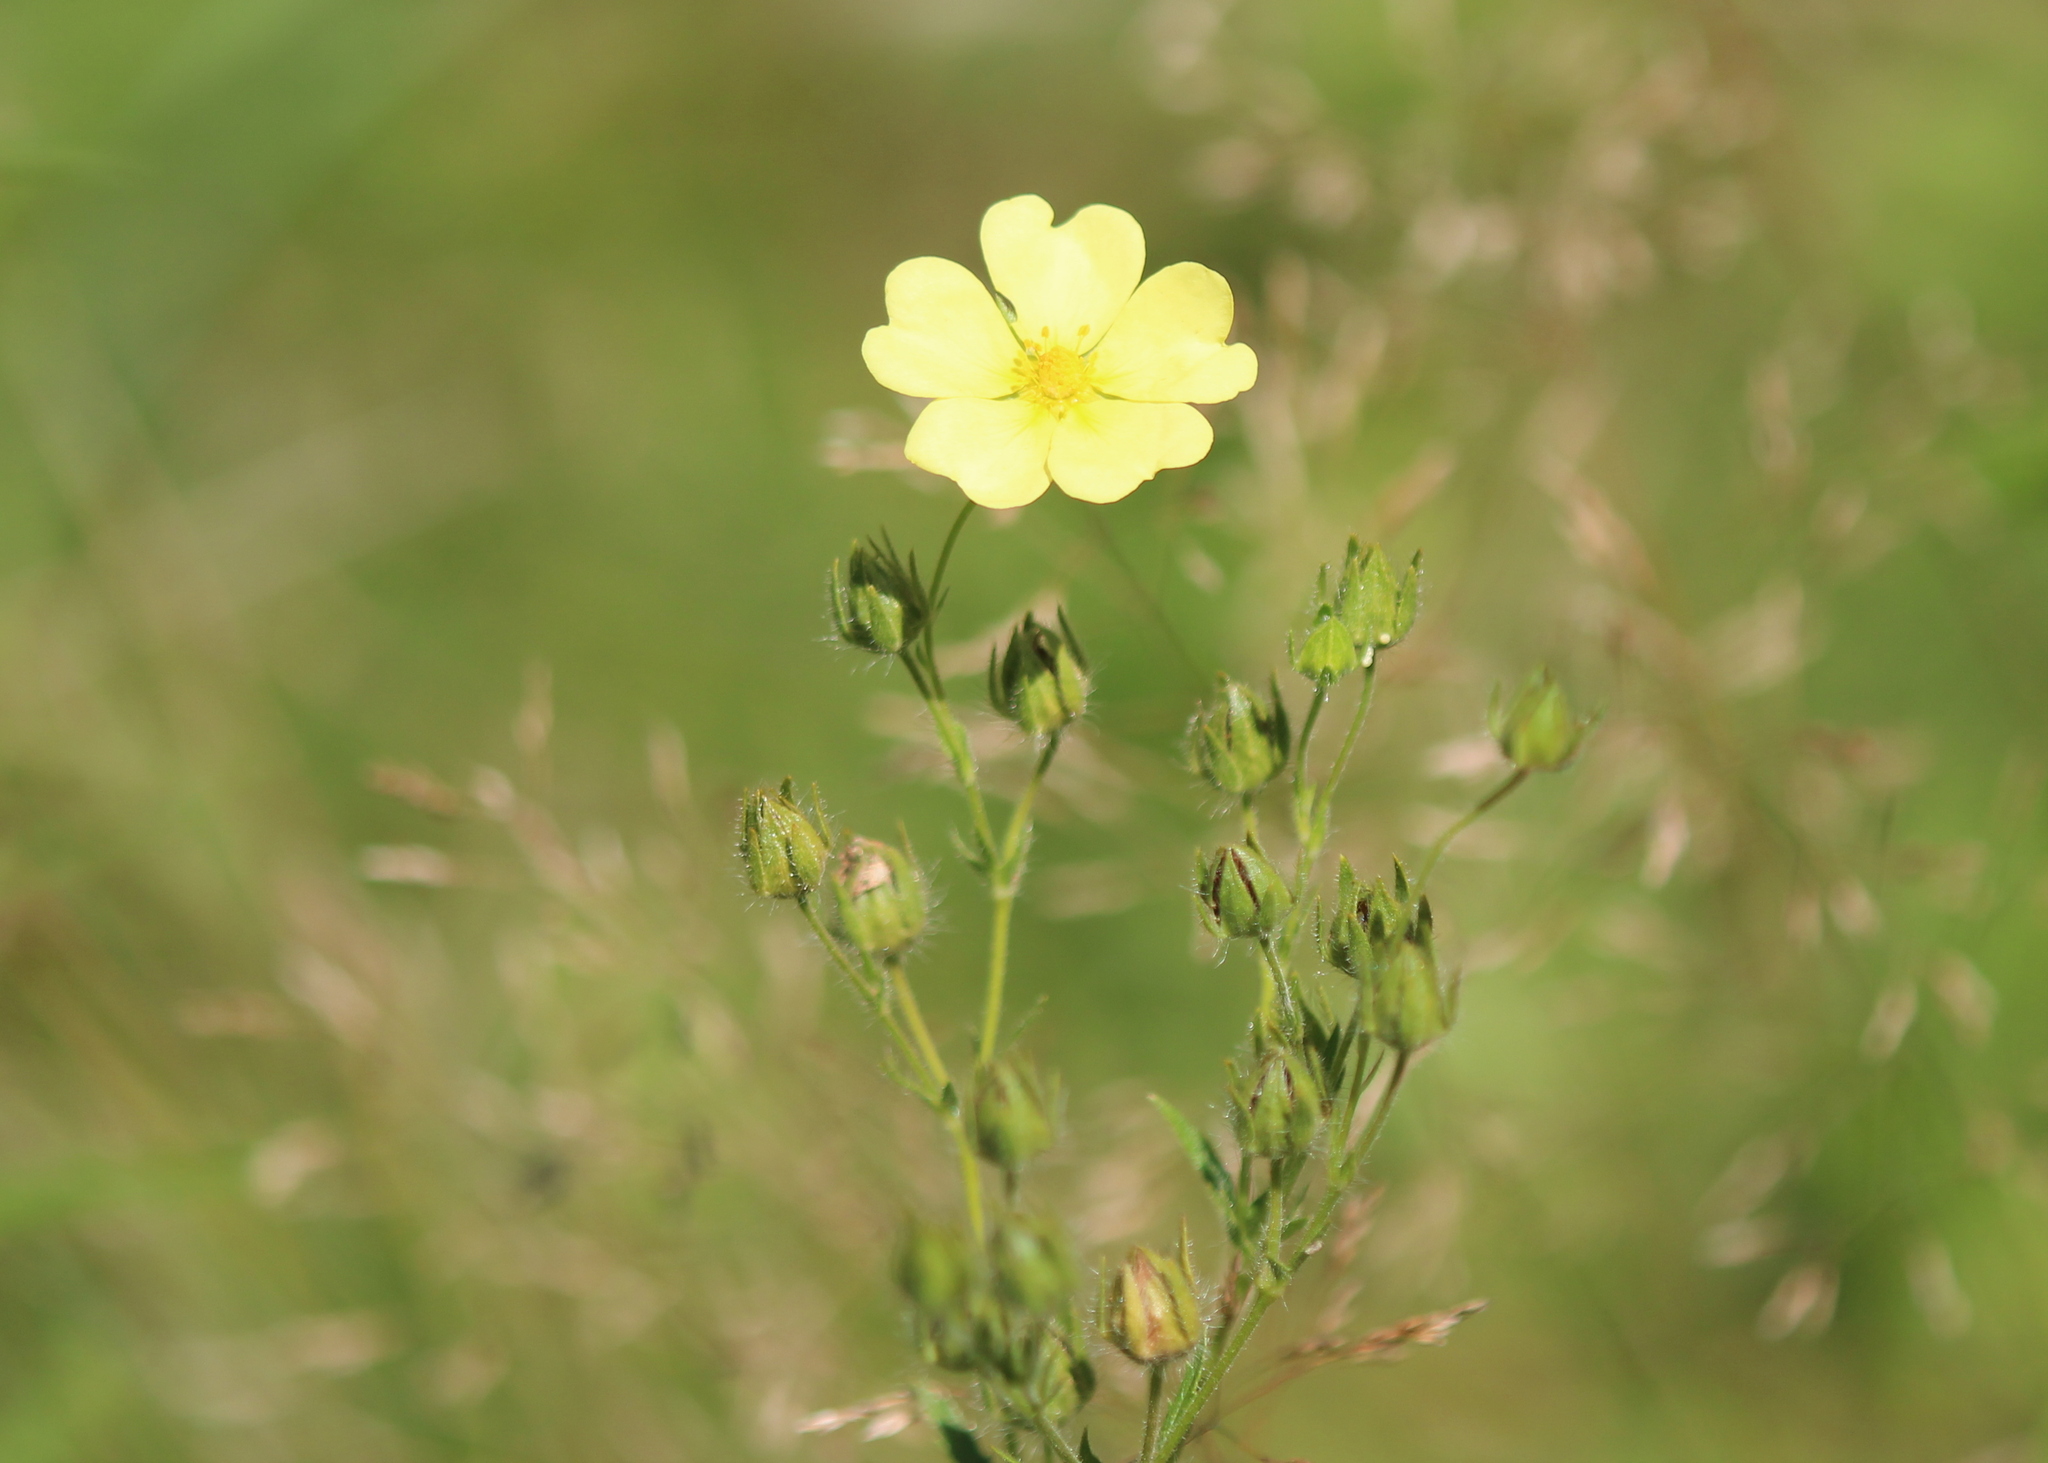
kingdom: Plantae
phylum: Tracheophyta
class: Magnoliopsida
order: Rosales
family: Rosaceae
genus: Potentilla
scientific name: Potentilla recta
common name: Sulphur cinquefoil
